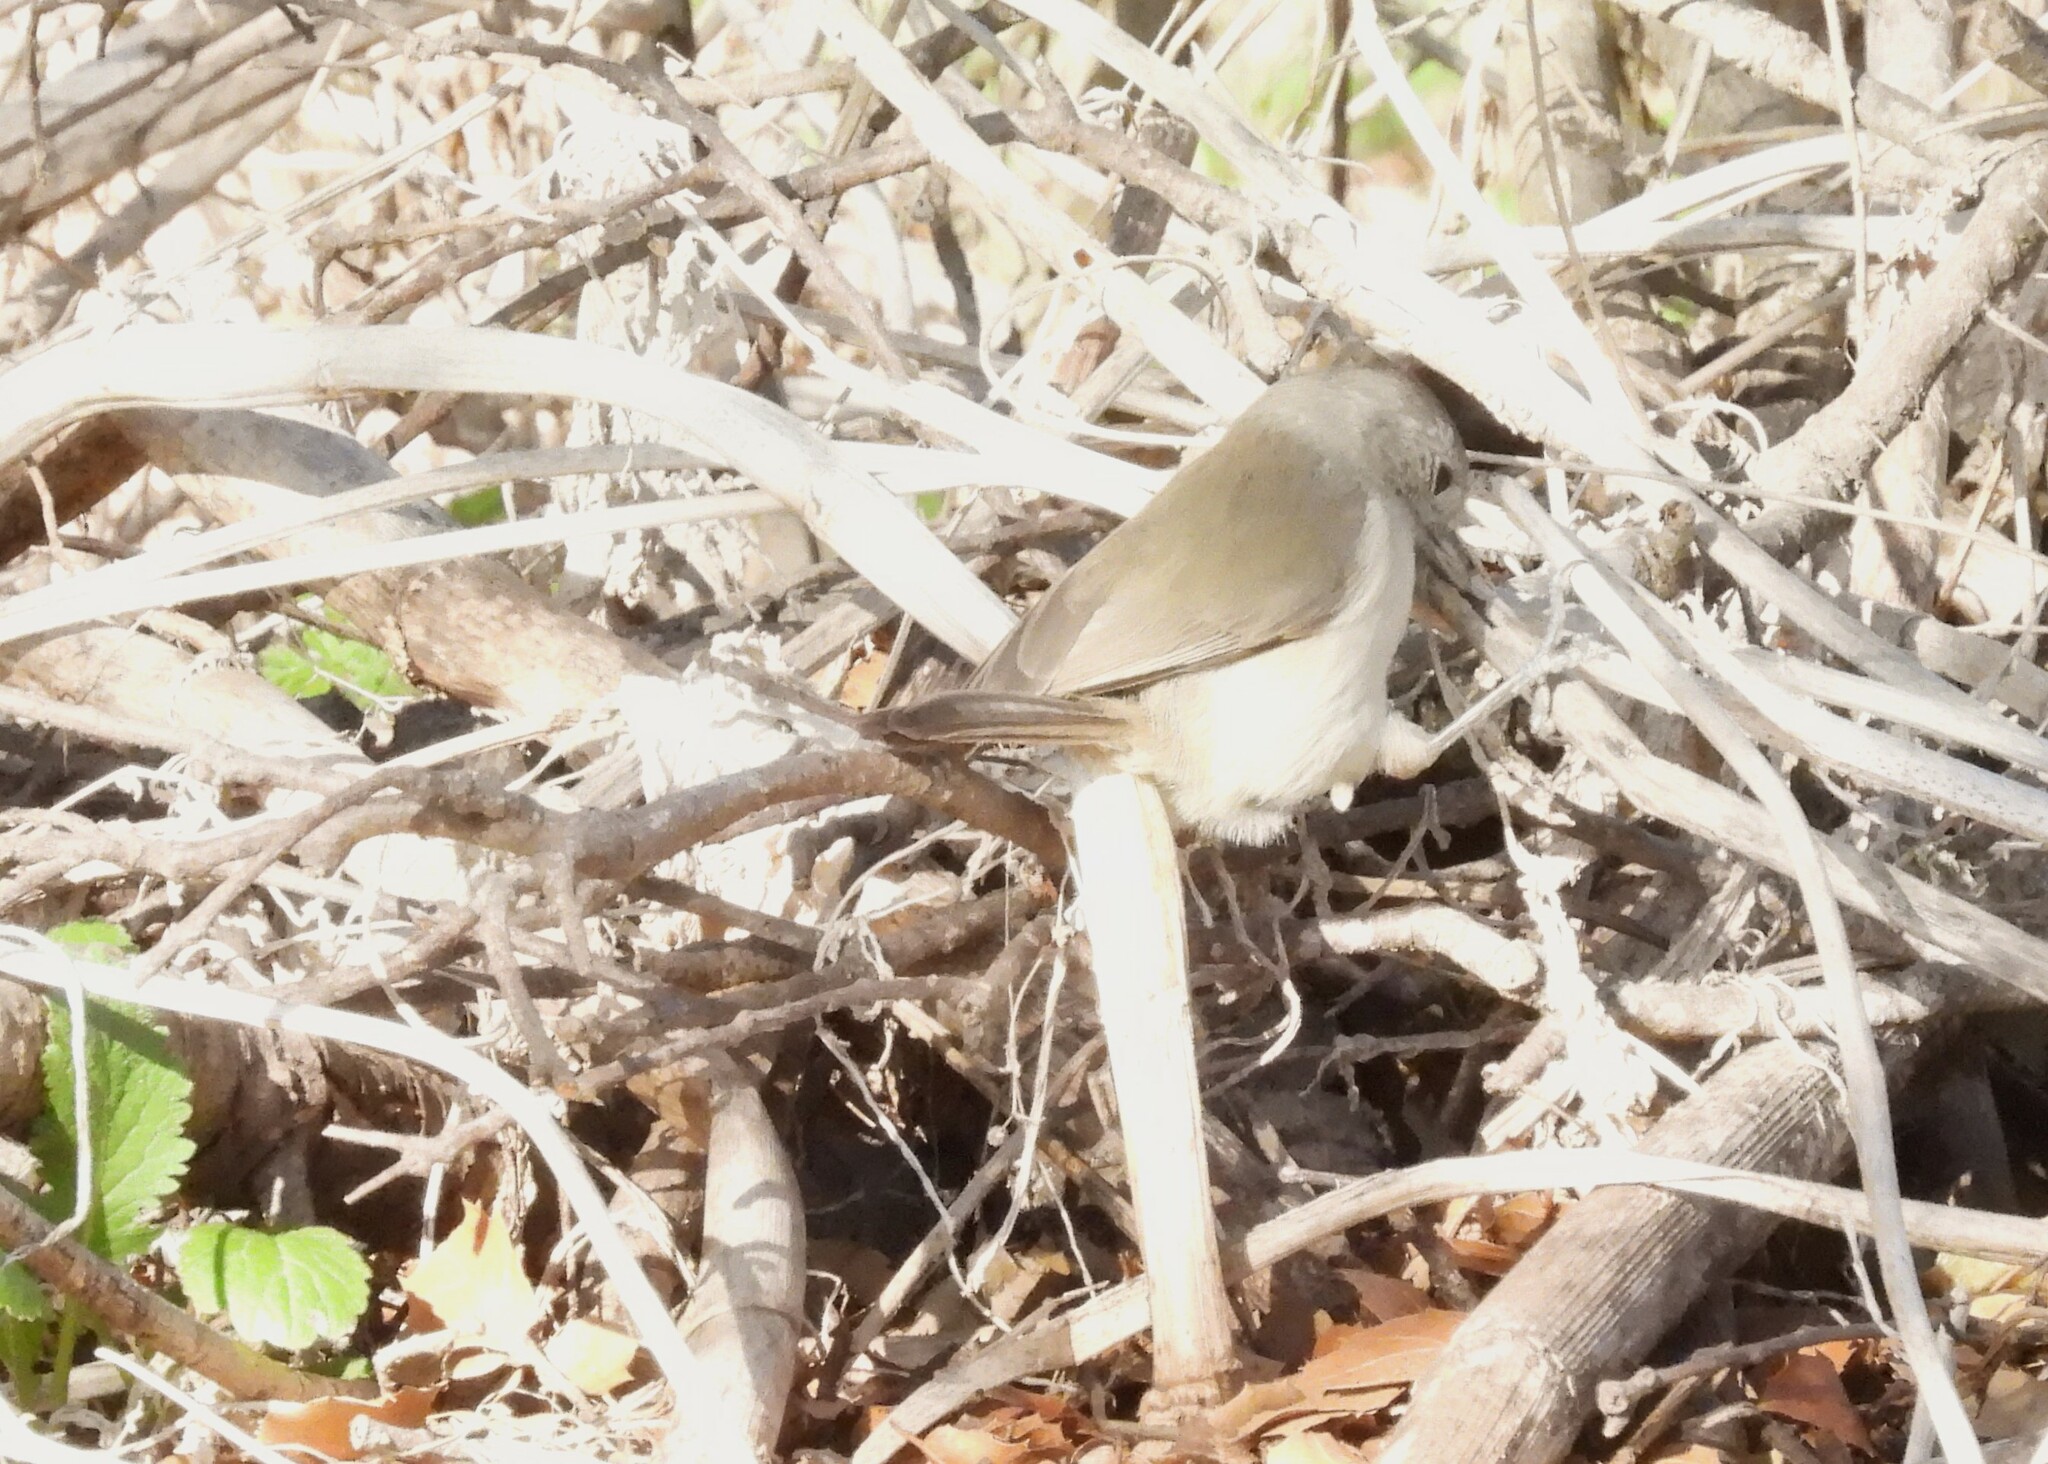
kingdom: Animalia
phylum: Chordata
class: Aves
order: Passeriformes
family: Paridae
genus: Baeolophus
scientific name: Baeolophus inornatus
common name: Oak titmouse
